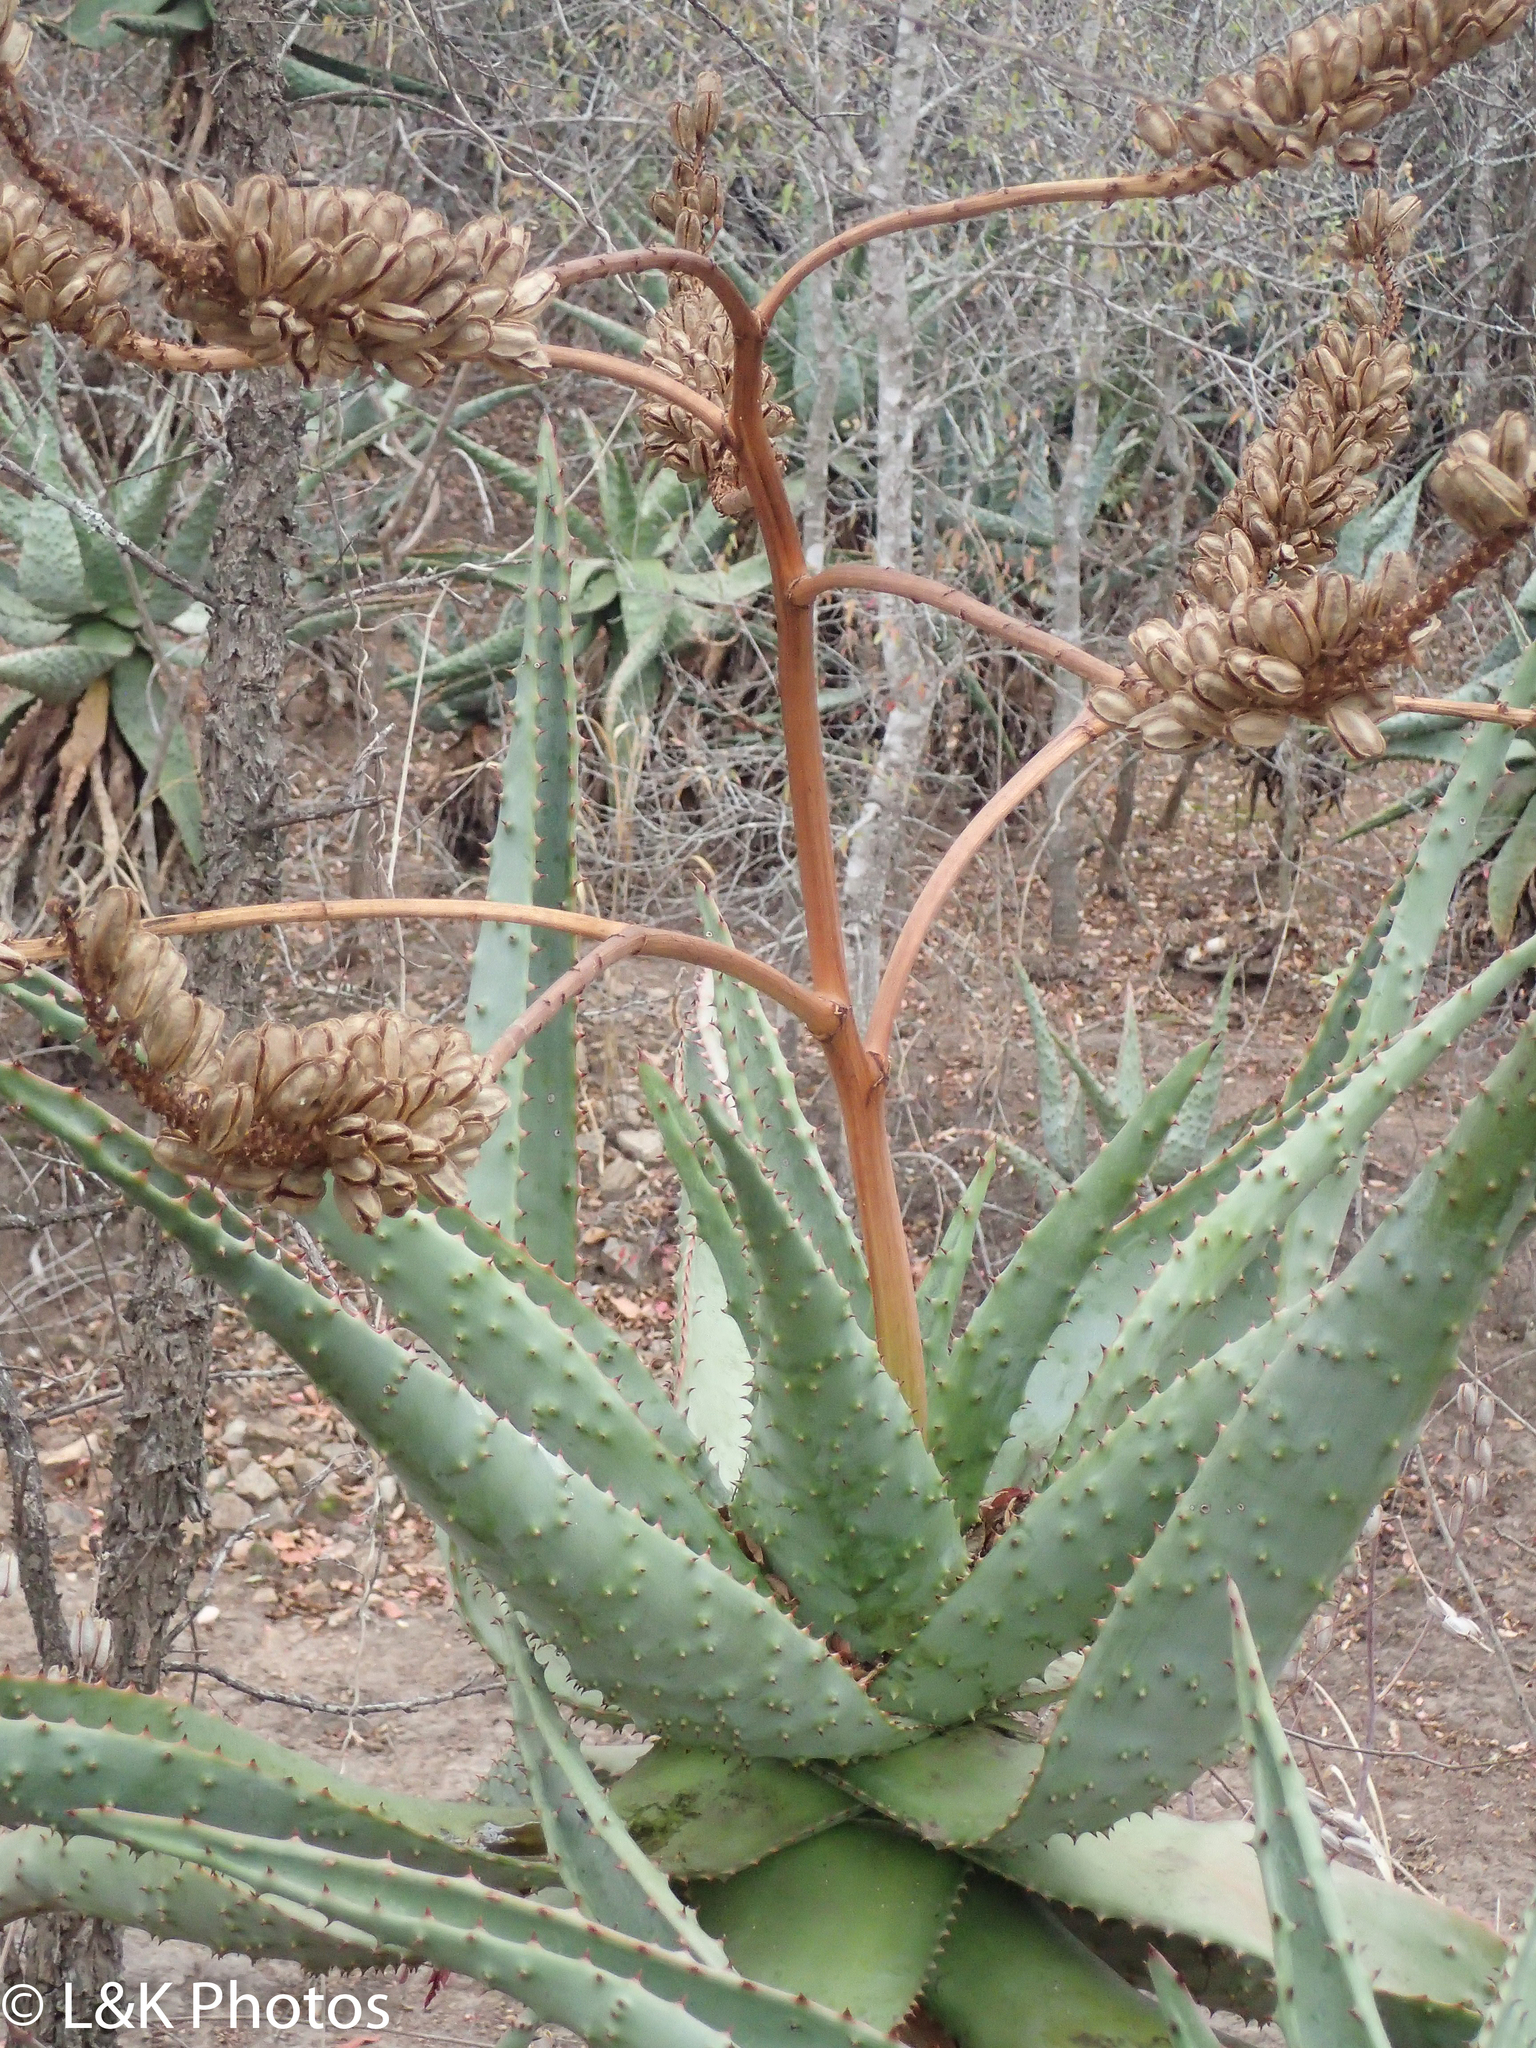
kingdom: Plantae
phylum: Tracheophyta
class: Liliopsida
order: Asparagales
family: Asphodelaceae
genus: Aloe
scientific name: Aloe marlothii
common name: Flat-flowered aloe
